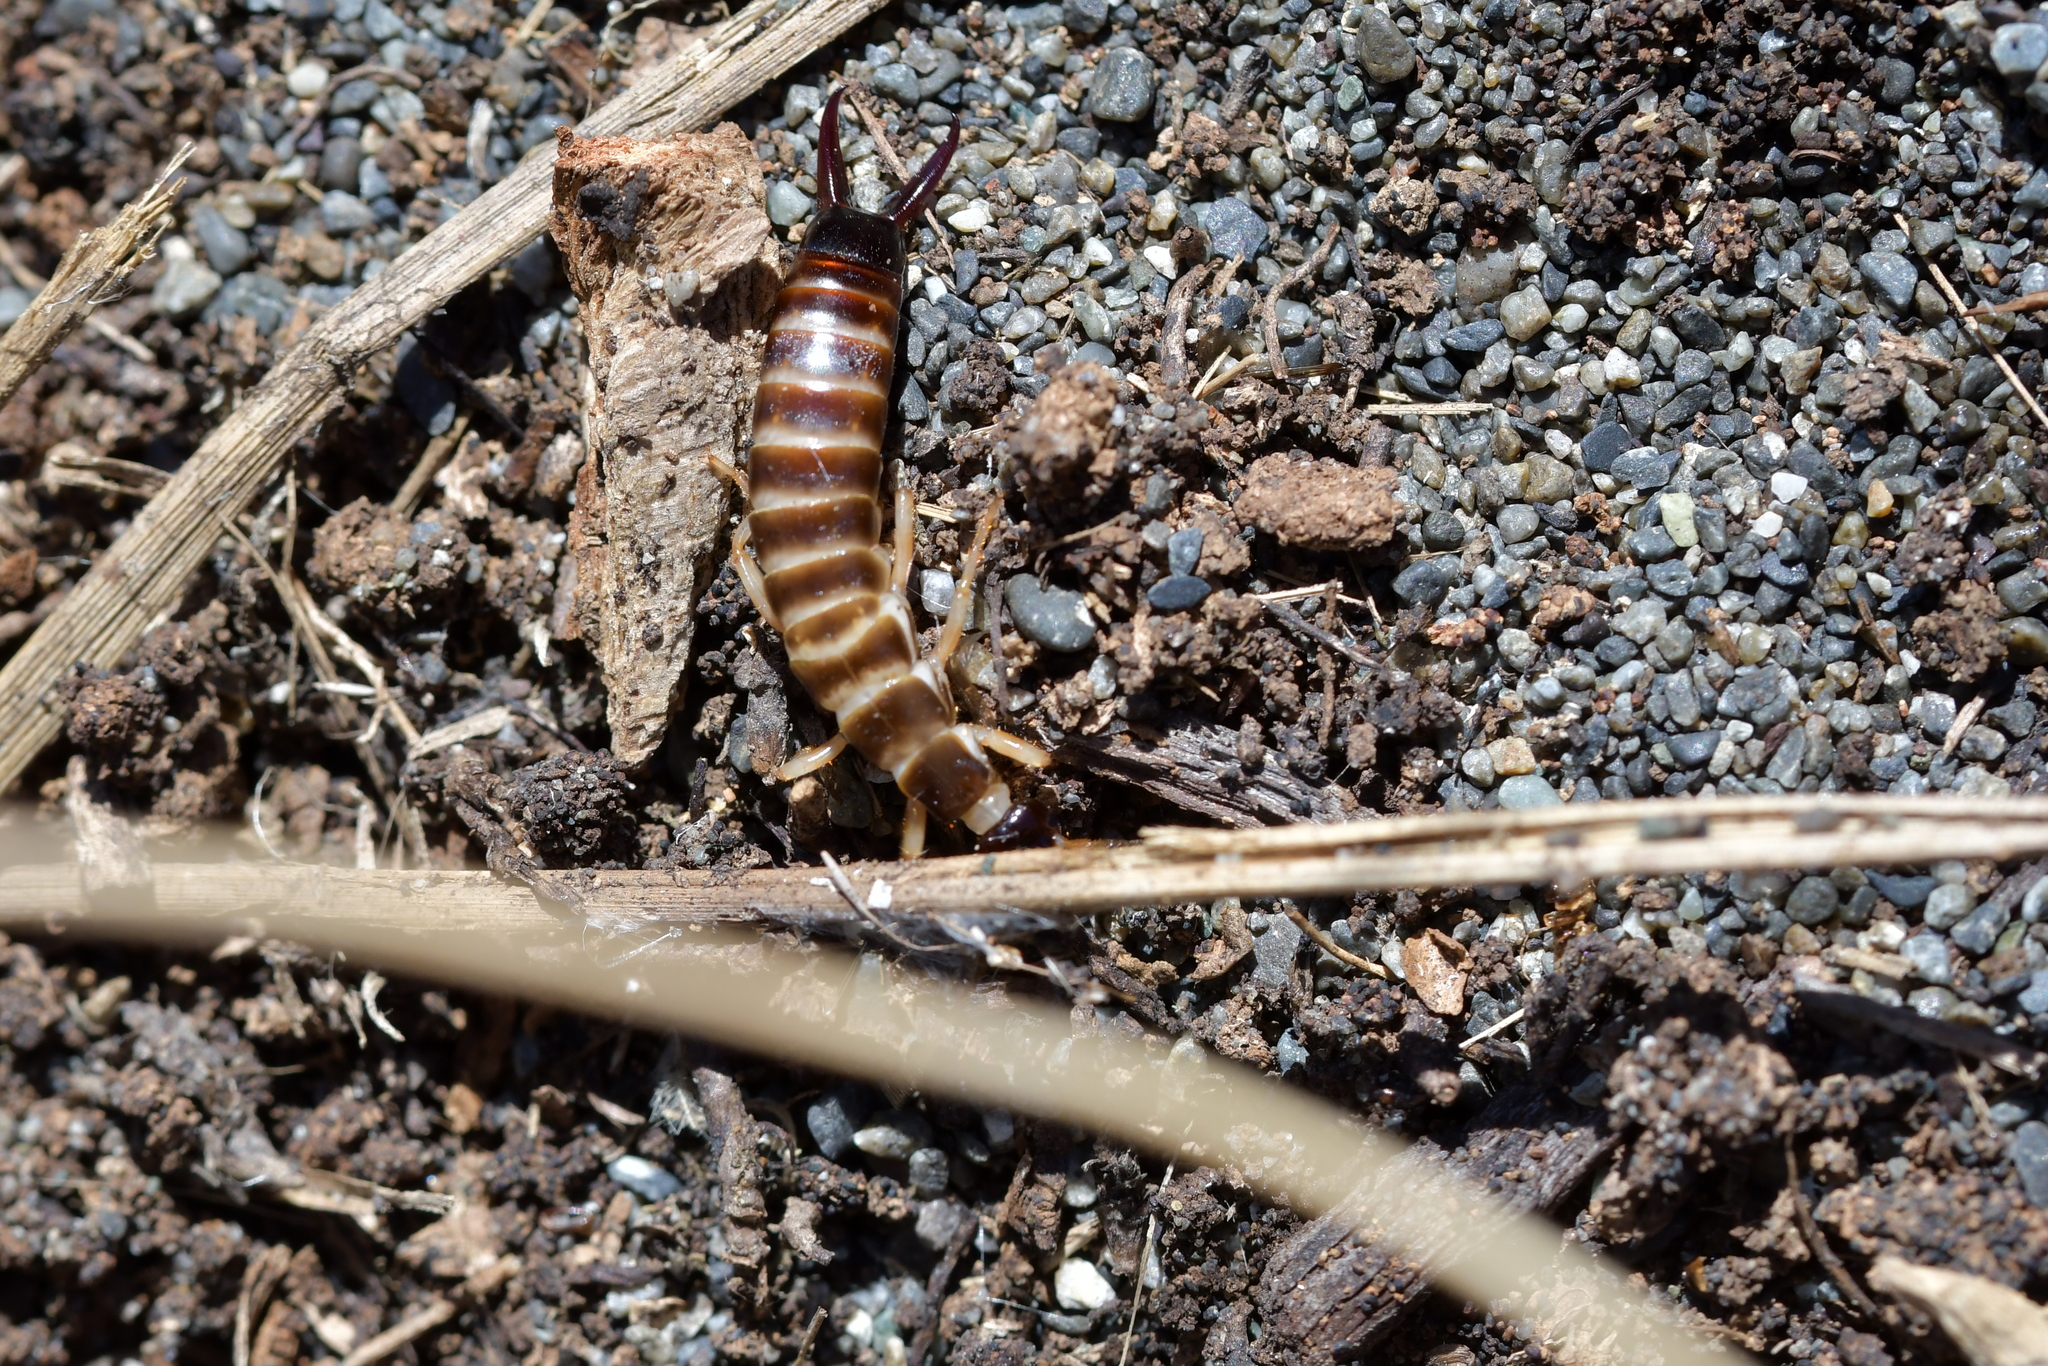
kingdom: Animalia
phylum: Arthropoda
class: Insecta
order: Dermaptera
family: Anisolabididae
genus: Anisolabis
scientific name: Anisolabis littorea
